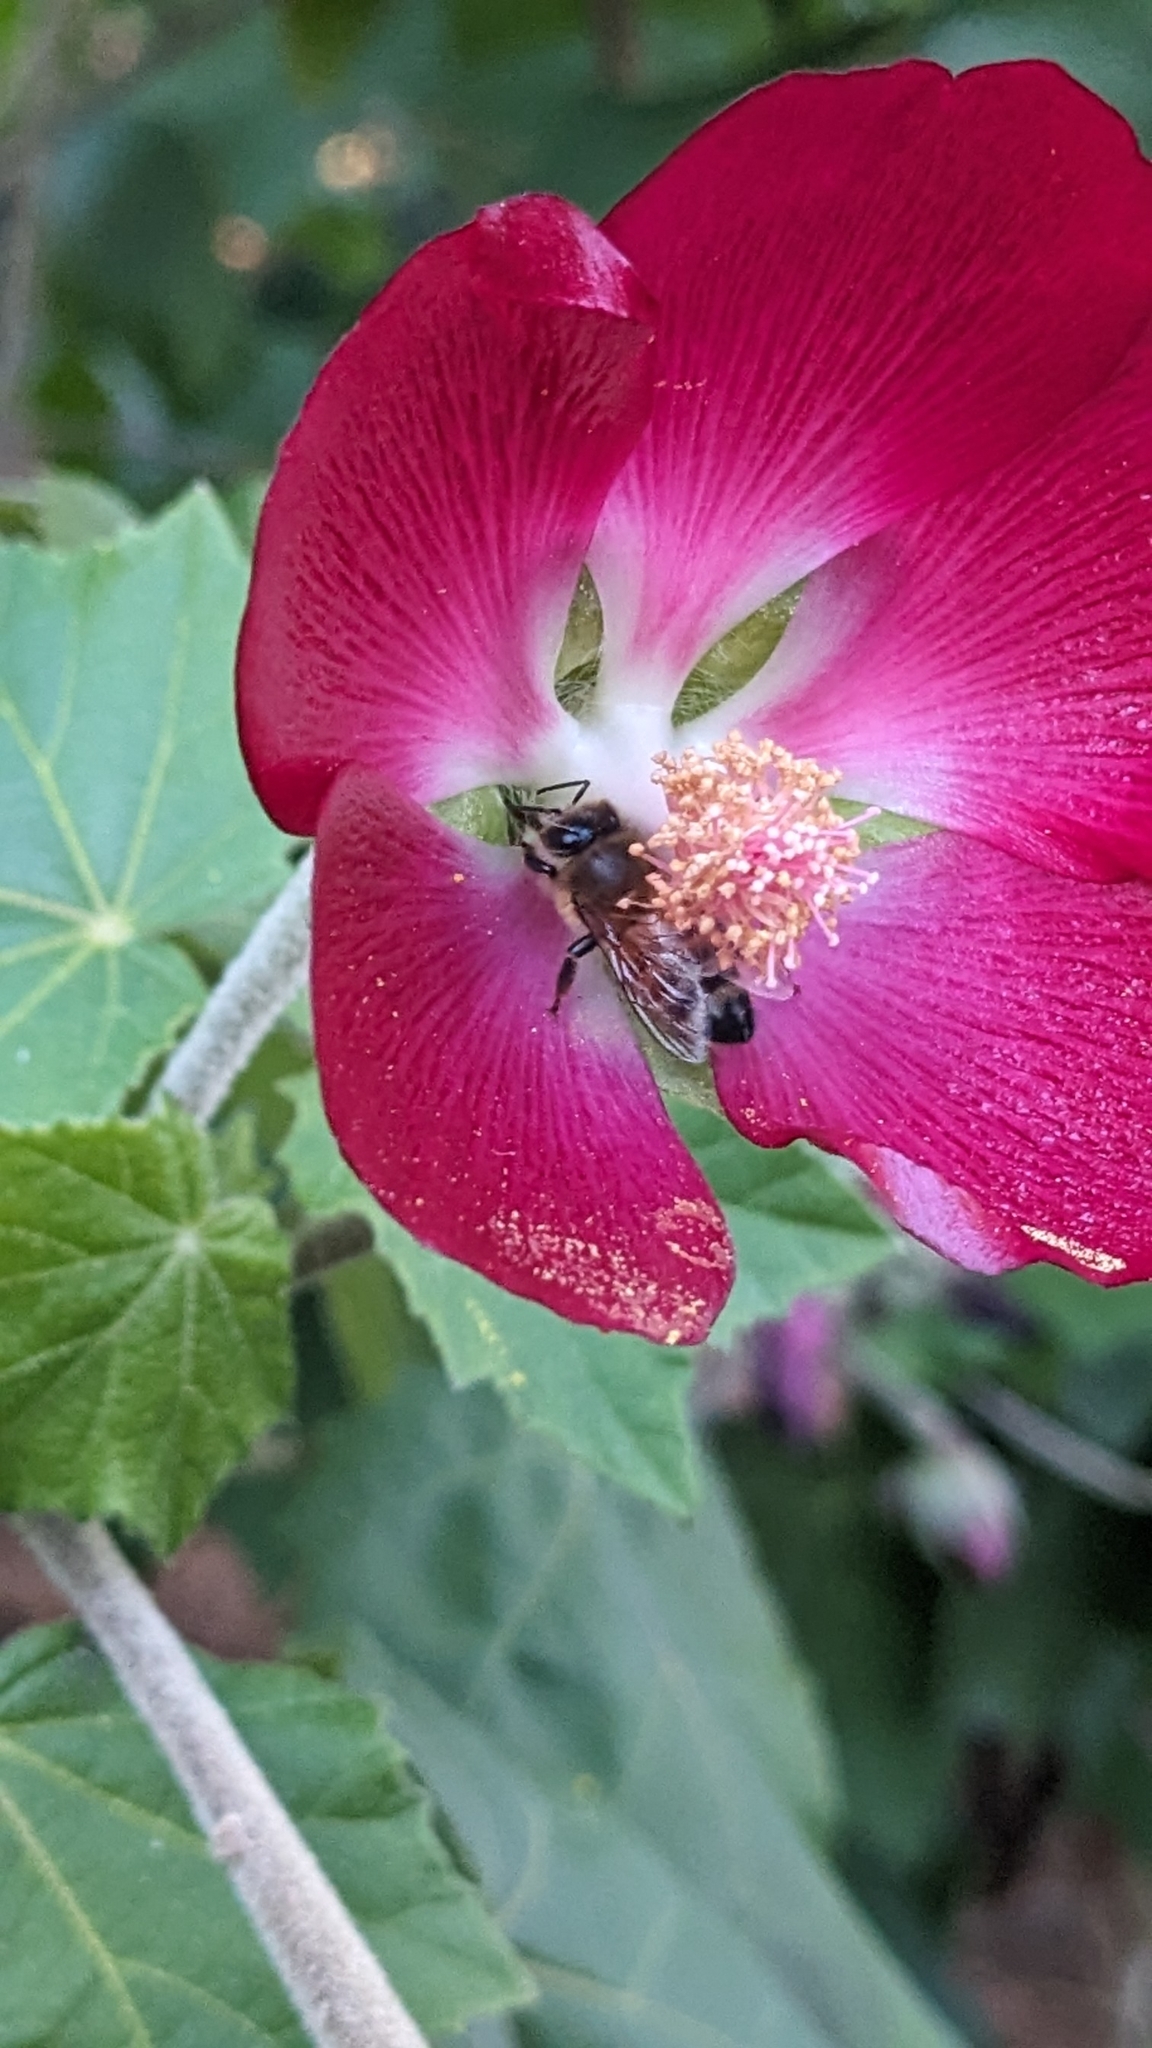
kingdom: Animalia
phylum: Arthropoda
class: Insecta
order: Hymenoptera
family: Apidae
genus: Apis
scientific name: Apis mellifera
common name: Honey bee
